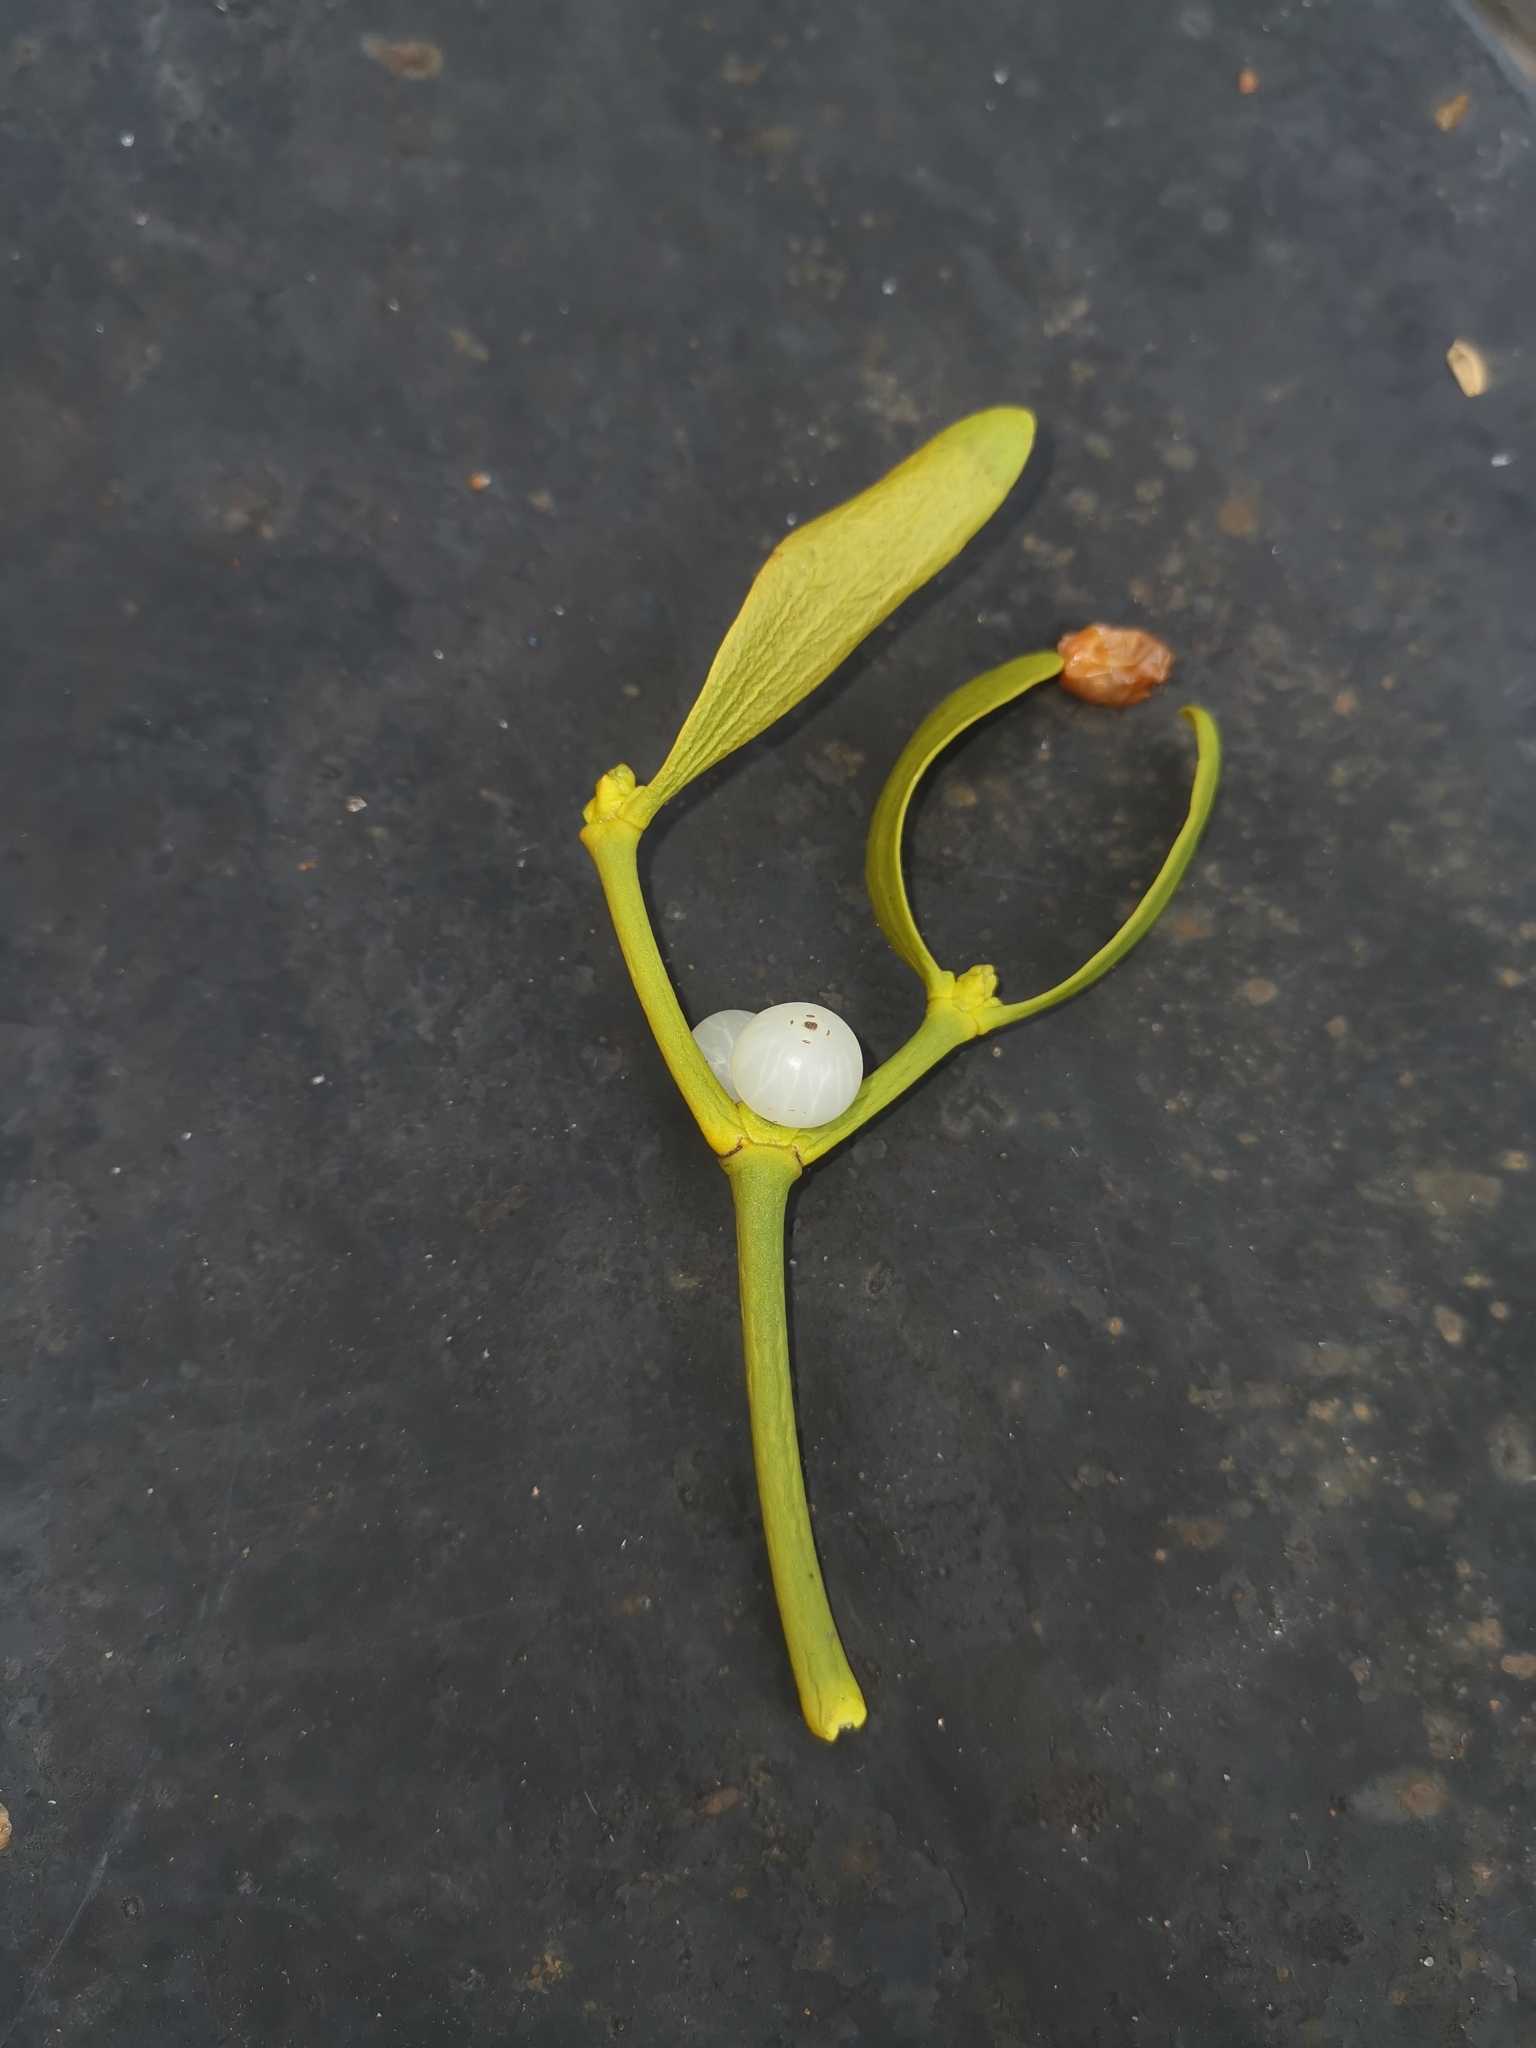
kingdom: Plantae
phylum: Tracheophyta
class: Magnoliopsida
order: Santalales
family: Viscaceae
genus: Viscum
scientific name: Viscum album
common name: Mistletoe
